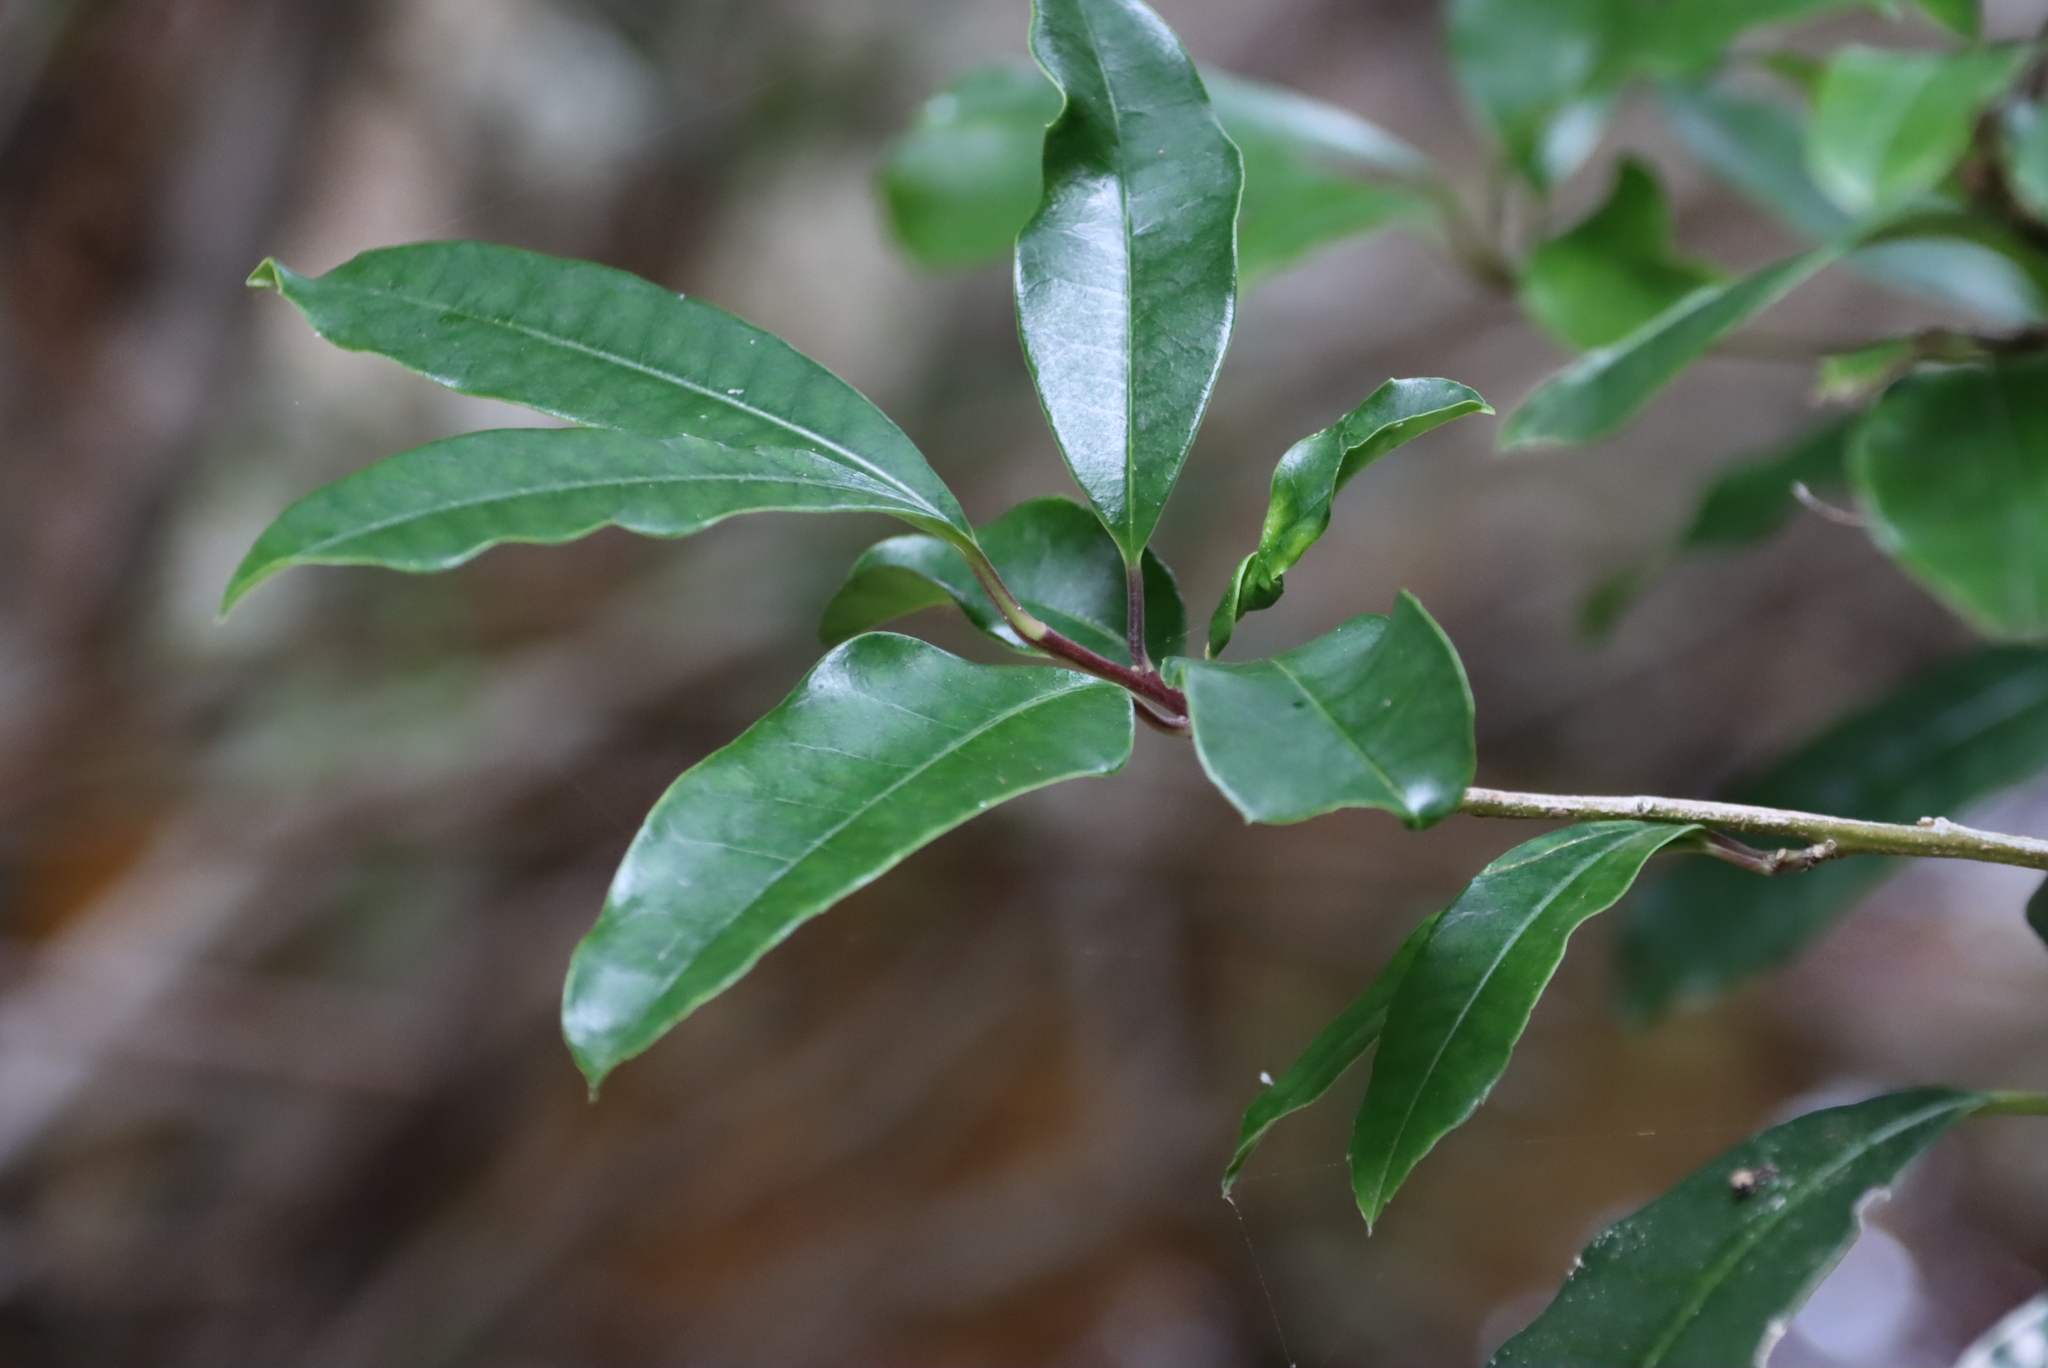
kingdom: Plantae
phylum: Tracheophyta
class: Magnoliopsida
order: Aquifoliales
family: Aquifoliaceae
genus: Ilex
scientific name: Ilex mitis
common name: African holly
